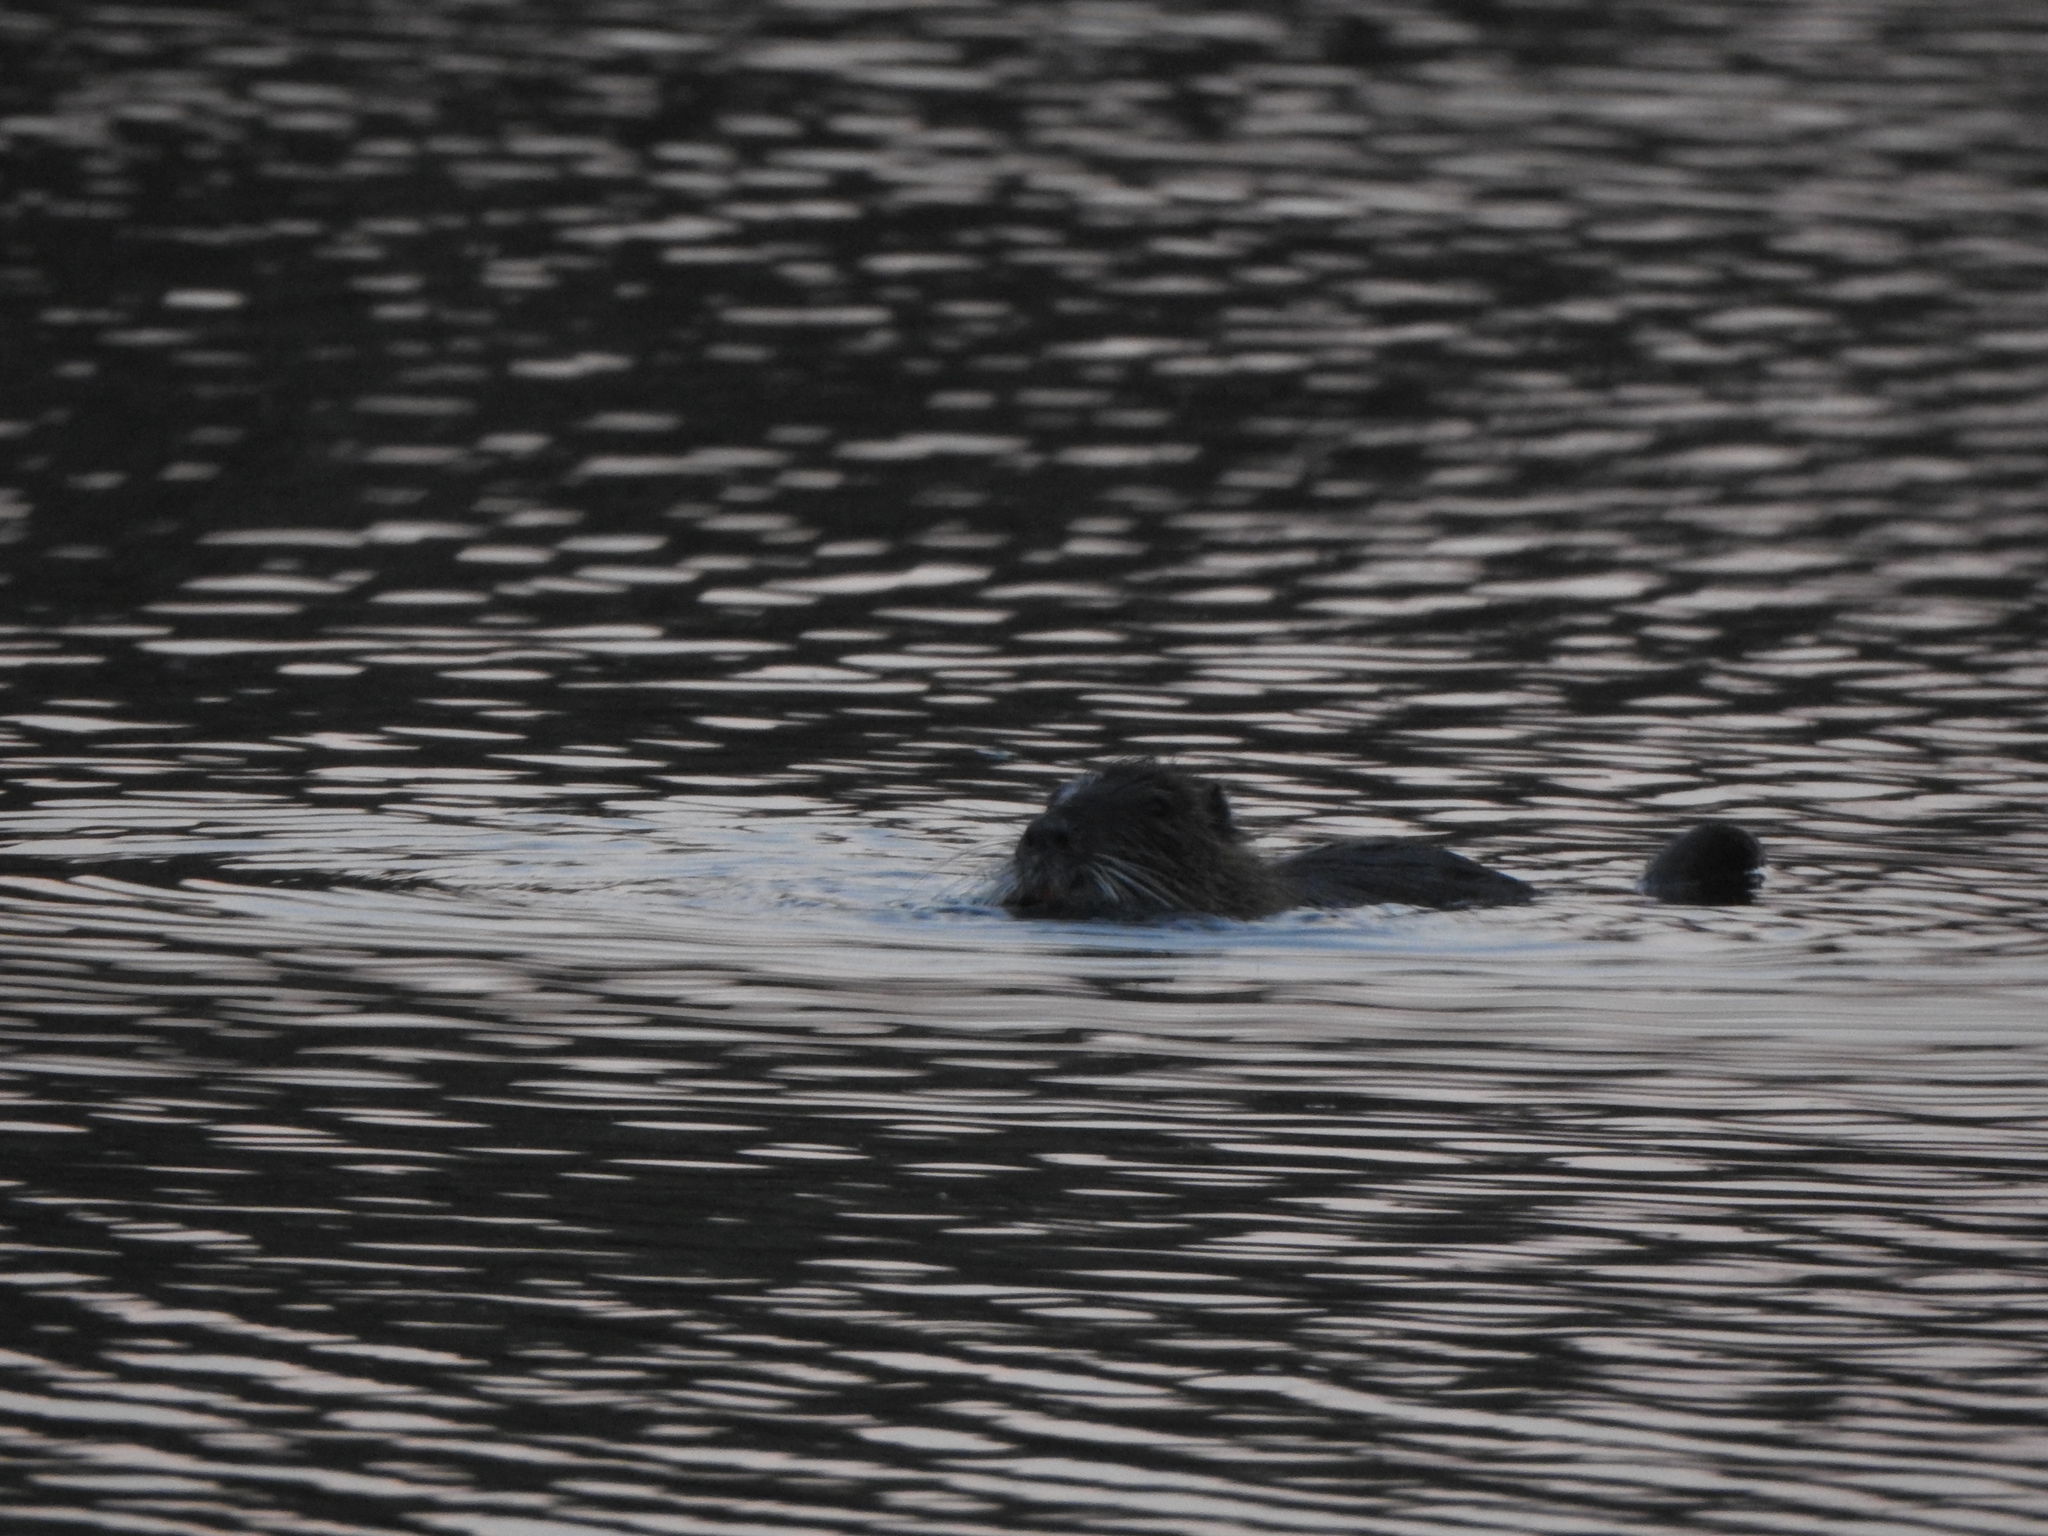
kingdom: Animalia
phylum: Chordata
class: Mammalia
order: Rodentia
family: Myocastoridae
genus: Myocastor
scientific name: Myocastor coypus
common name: Coypu
